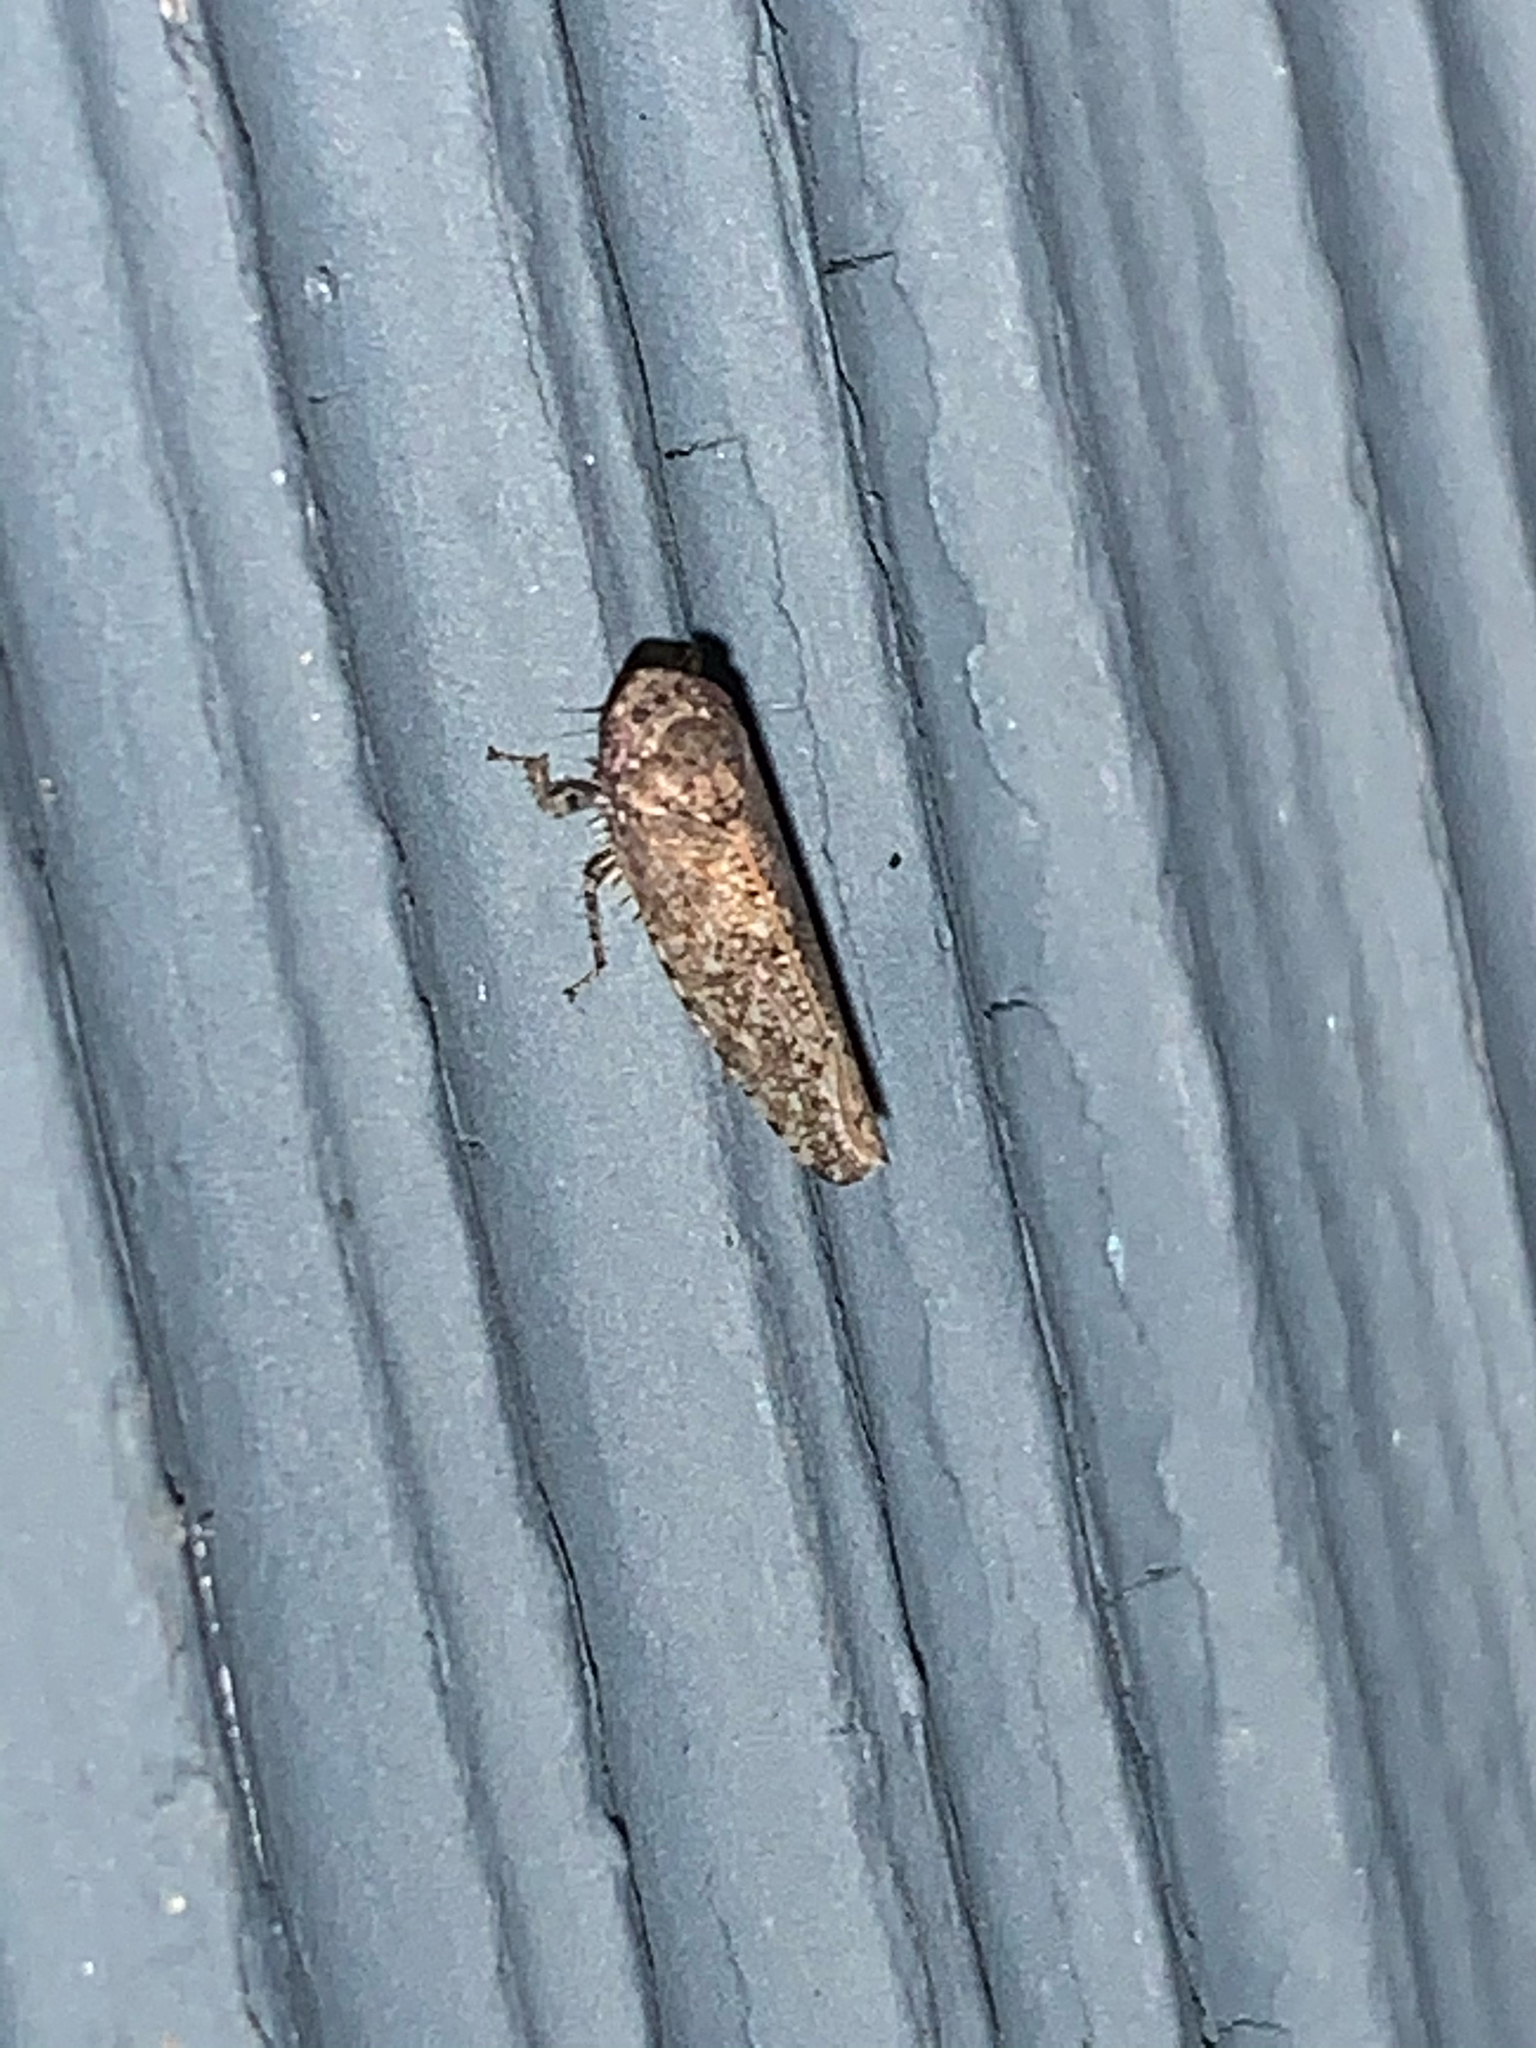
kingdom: Animalia
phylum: Arthropoda
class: Insecta
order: Hemiptera
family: Cicadellidae
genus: Paraphlepsius
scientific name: Paraphlepsius
